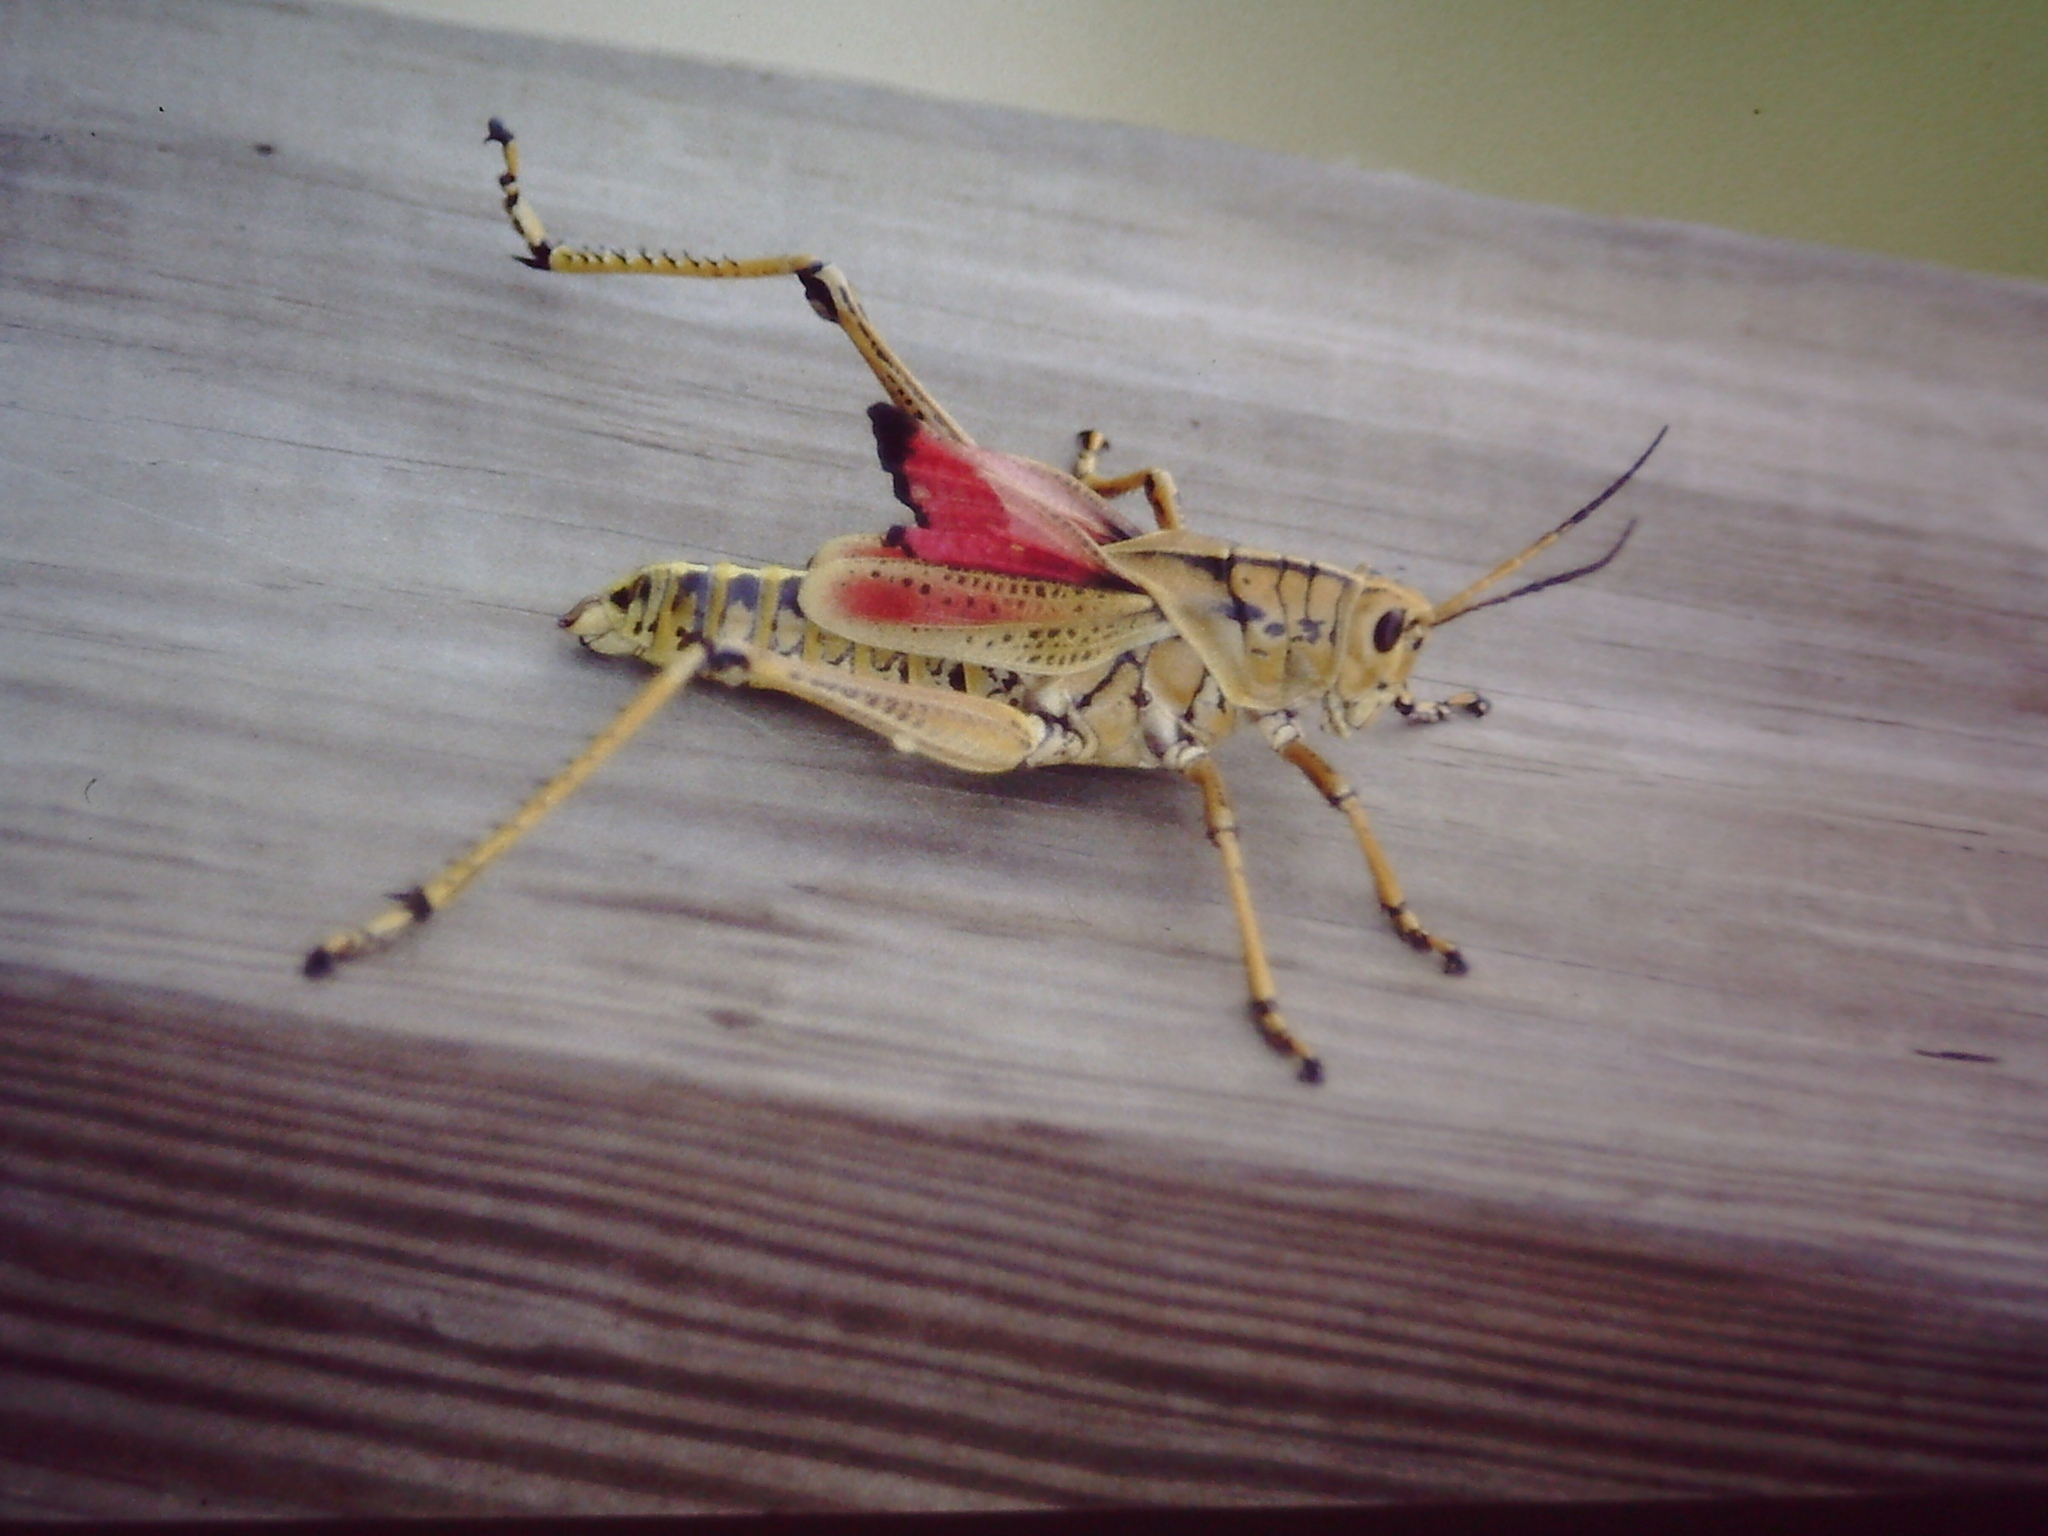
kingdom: Animalia
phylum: Arthropoda
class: Insecta
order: Orthoptera
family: Romaleidae
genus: Romalea
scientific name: Romalea microptera
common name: Eastern lubber grasshopper
